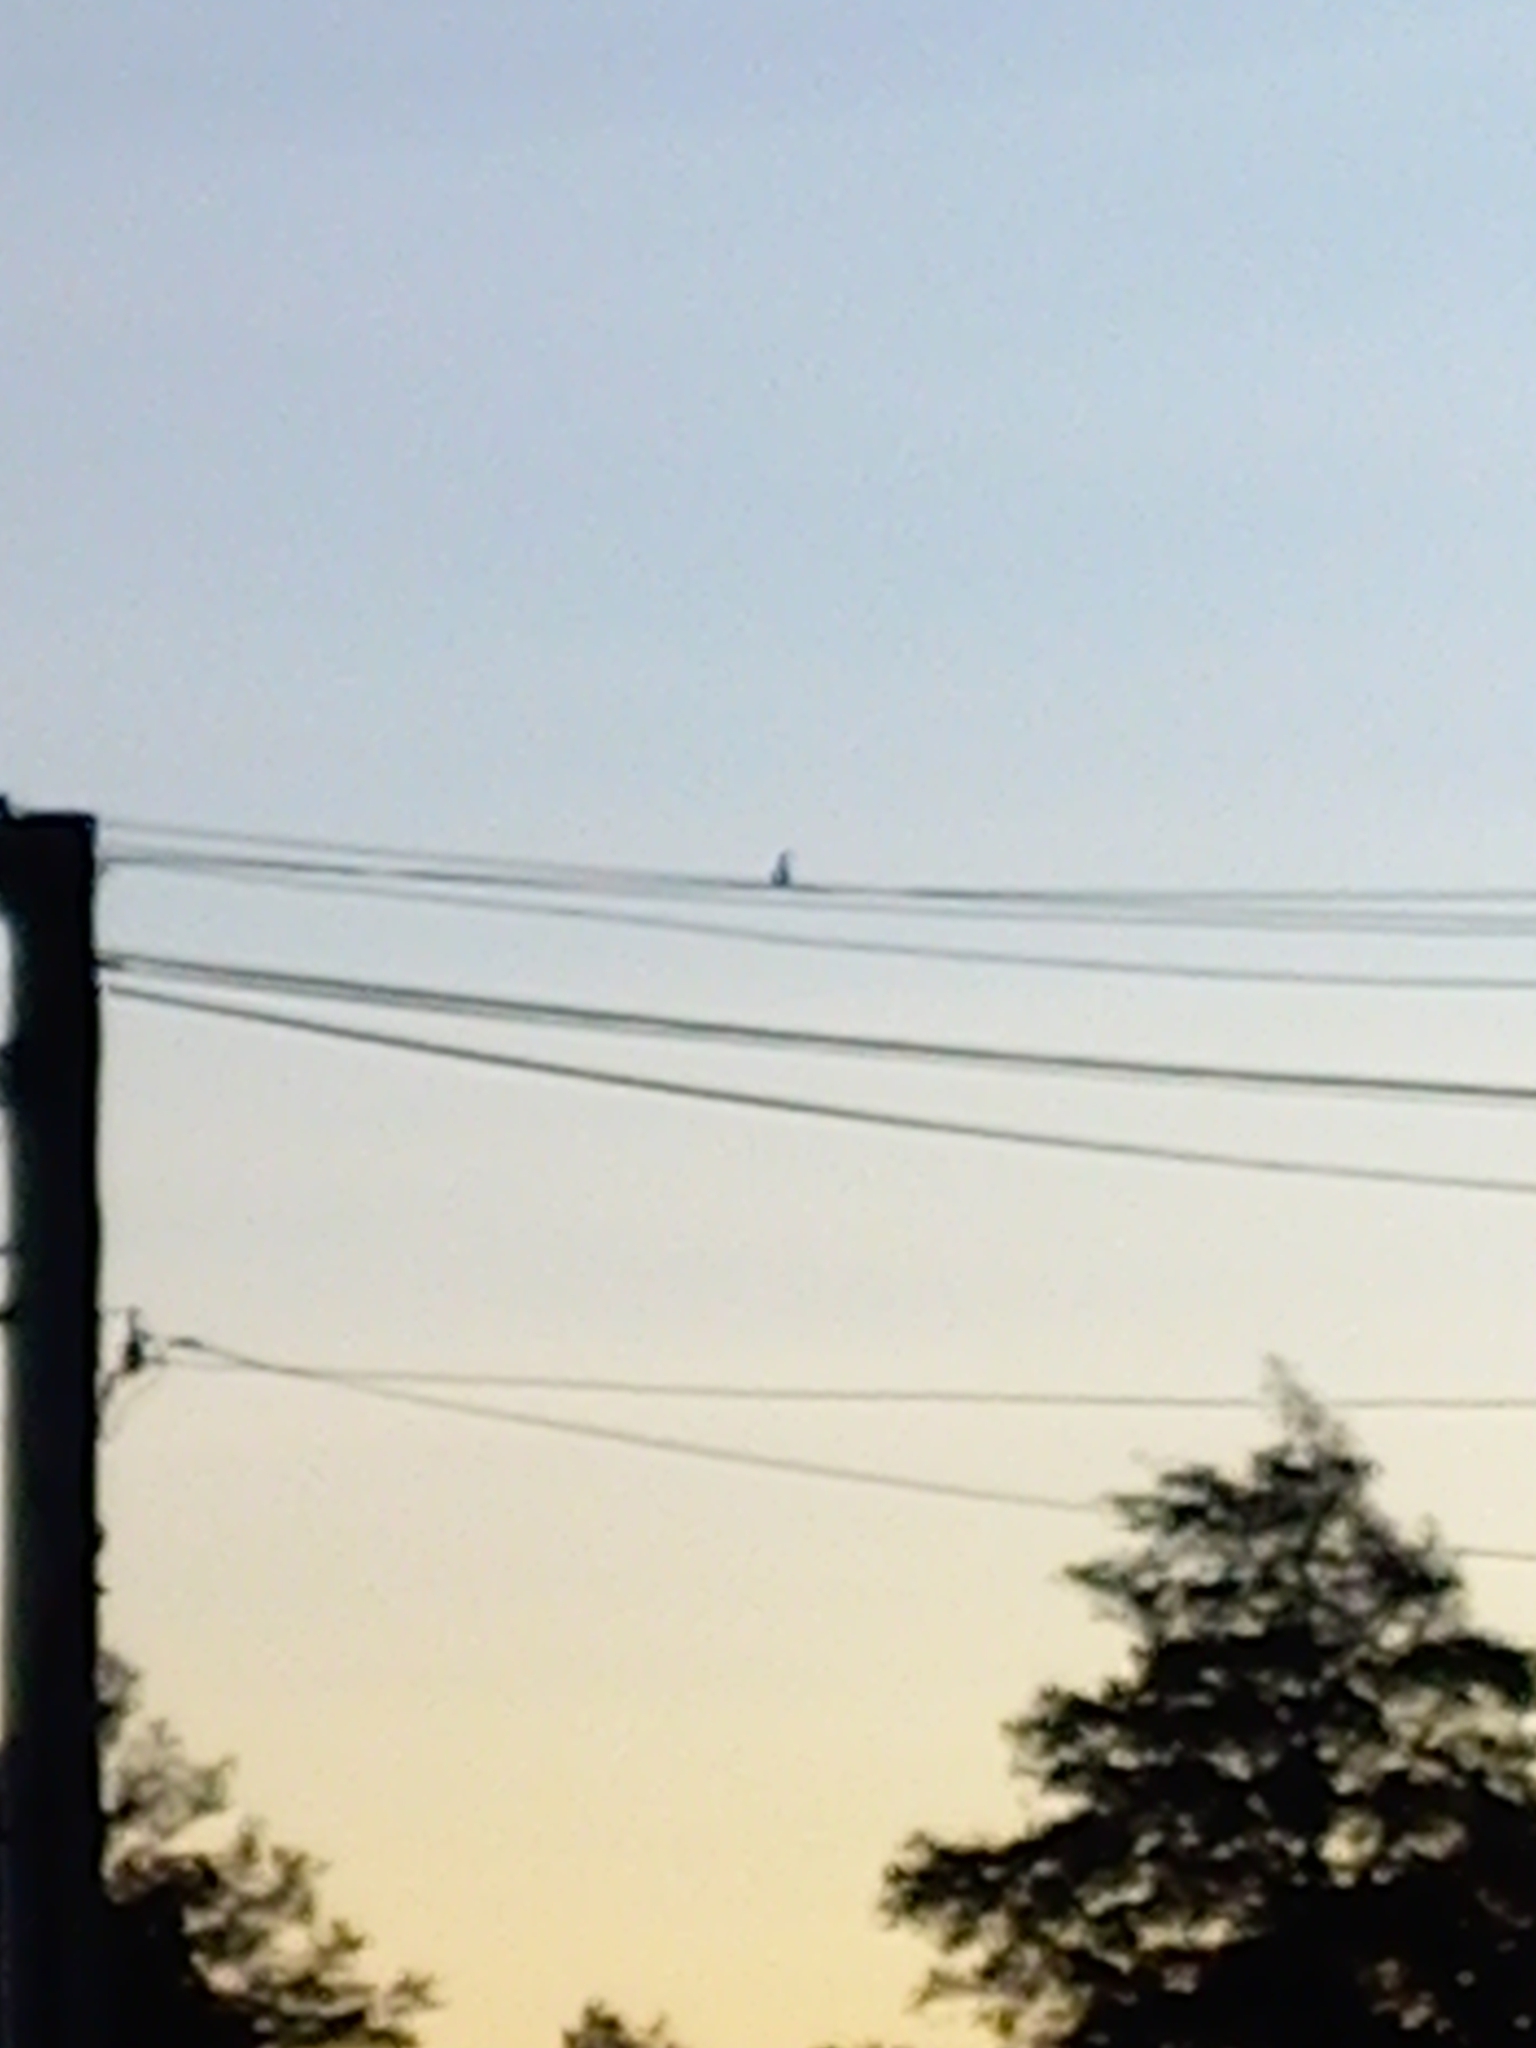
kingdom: Animalia
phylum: Chordata
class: Aves
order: Passeriformes
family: Rhipiduridae
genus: Rhipidura
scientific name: Rhipidura fuliginosa
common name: New zealand fantail
